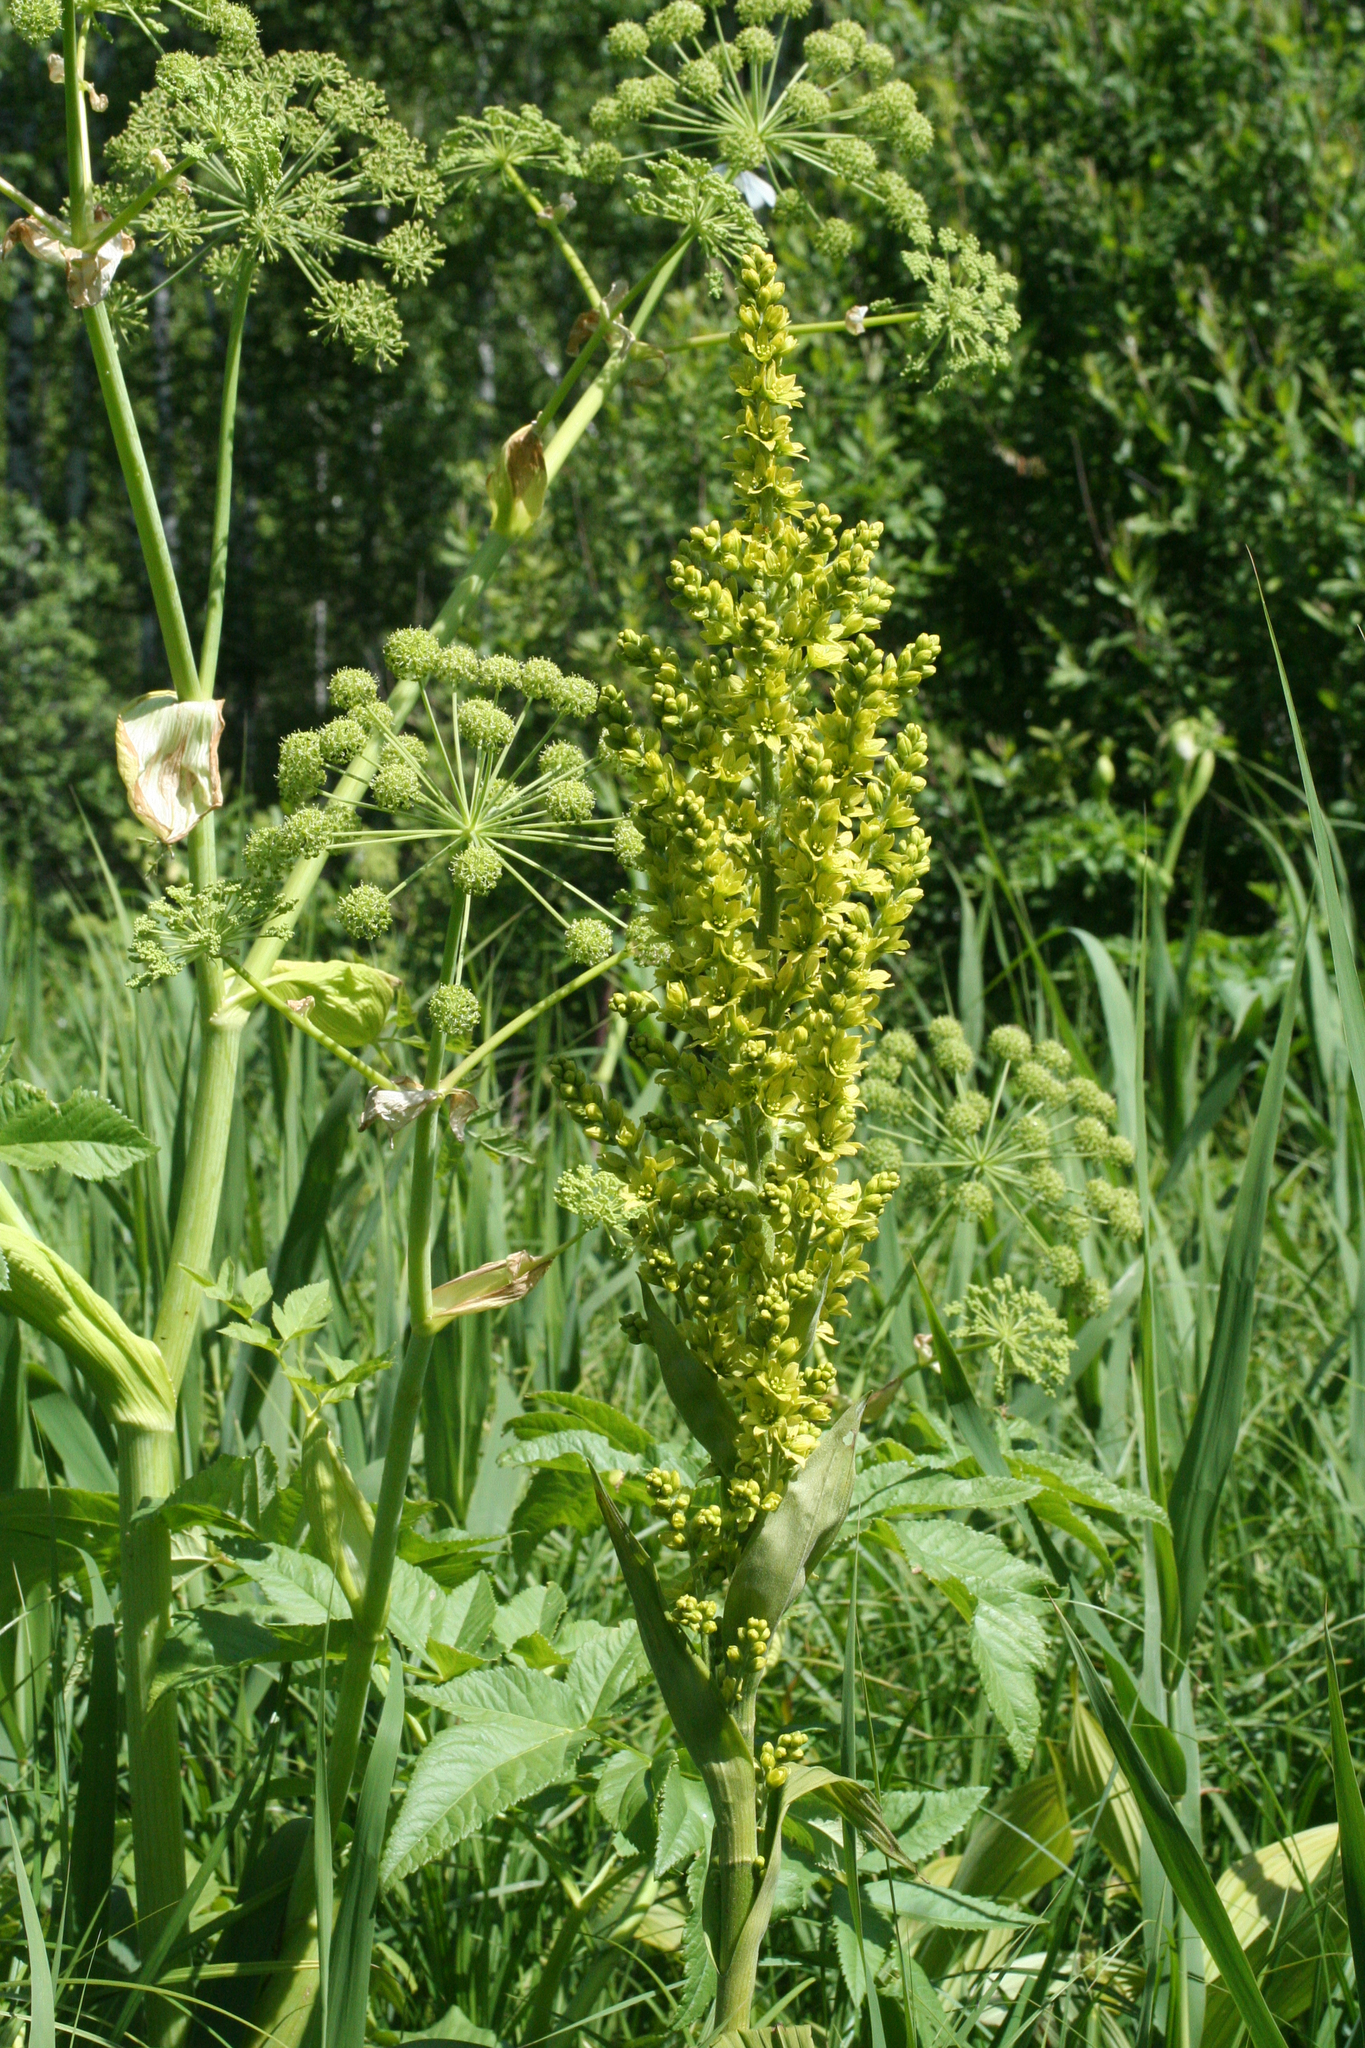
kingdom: Plantae
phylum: Tracheophyta
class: Liliopsida
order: Liliales
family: Melanthiaceae
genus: Veratrum
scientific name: Veratrum lobelianum
